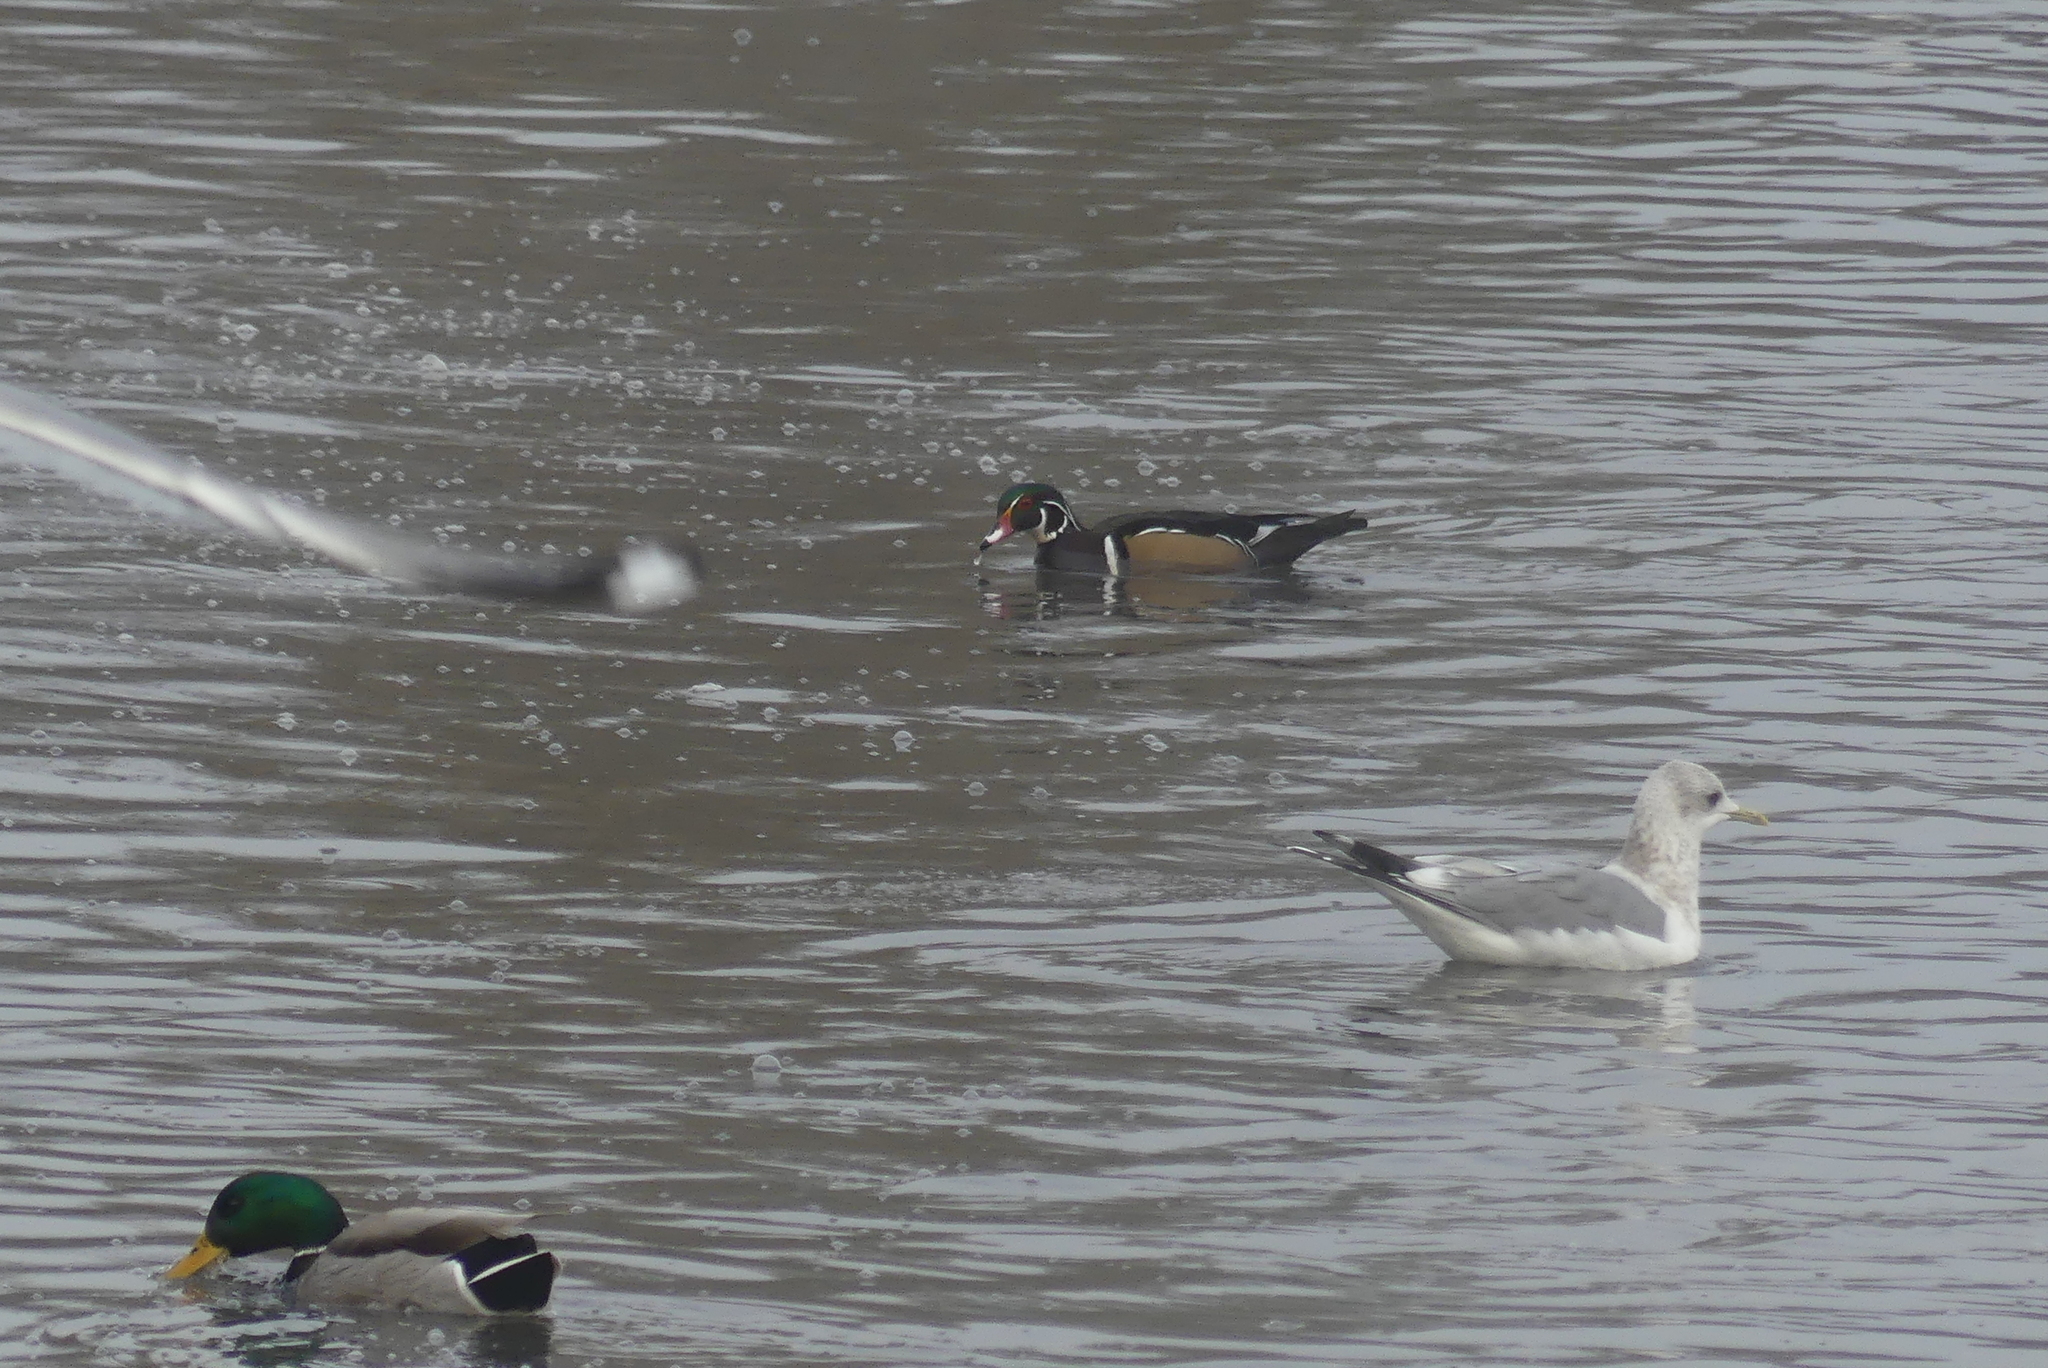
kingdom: Animalia
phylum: Chordata
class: Aves
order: Anseriformes
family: Anatidae
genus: Aix
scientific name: Aix sponsa
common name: Wood duck
